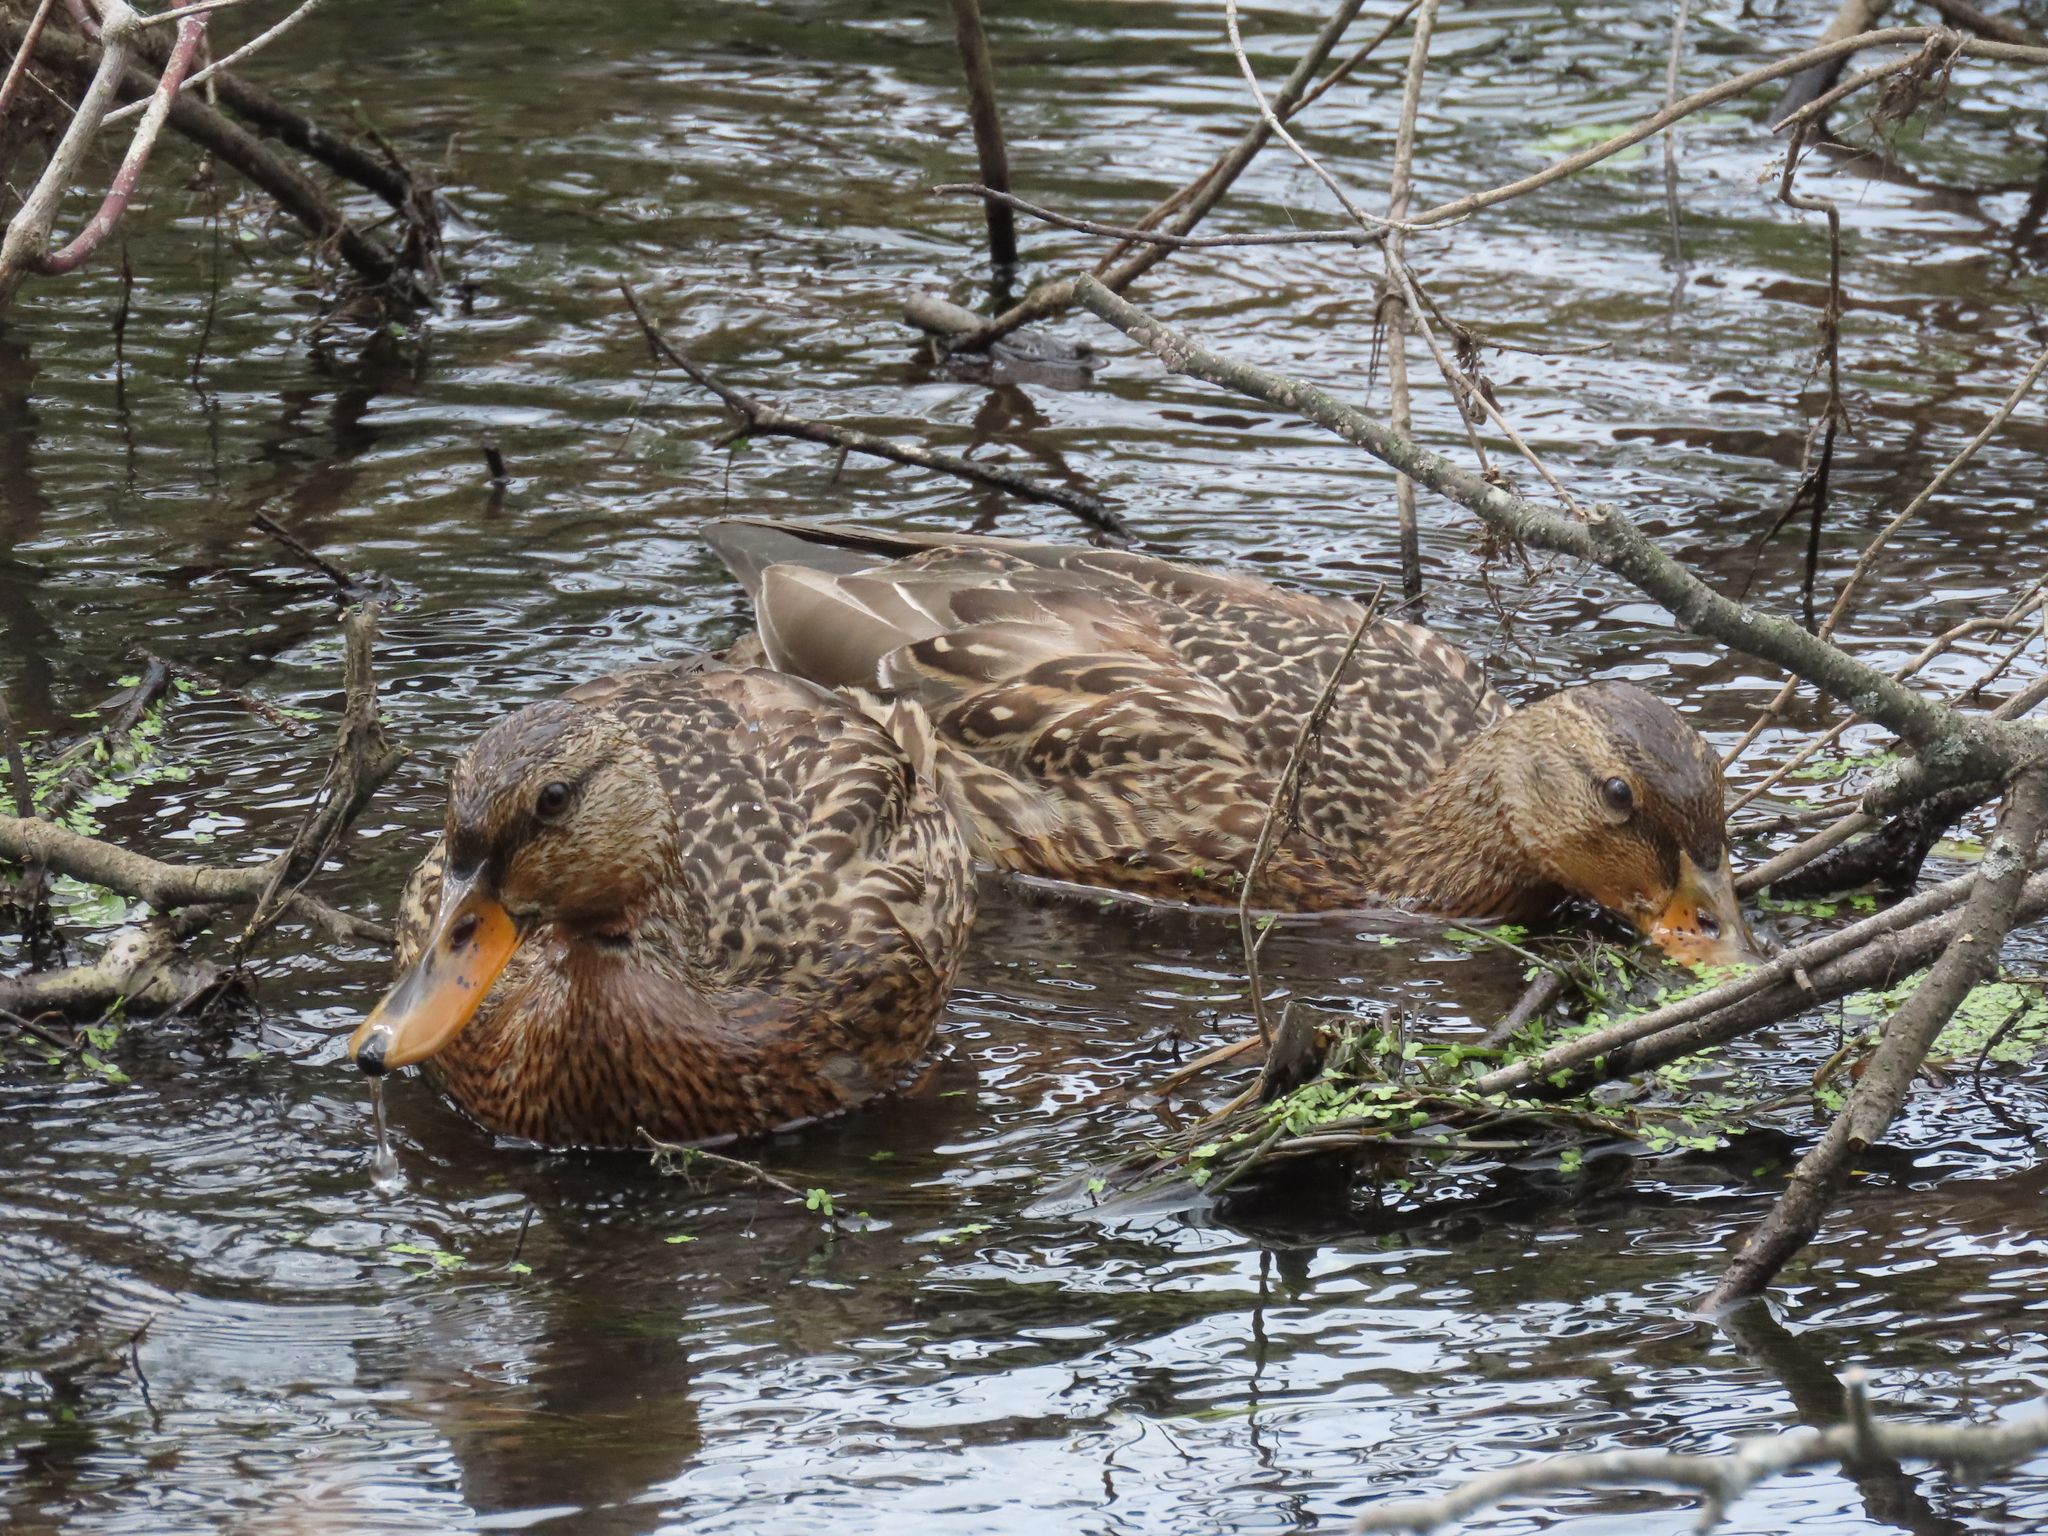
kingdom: Animalia
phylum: Chordata
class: Aves
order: Anseriformes
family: Anatidae
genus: Anas
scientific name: Anas platyrhynchos
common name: Mallard
